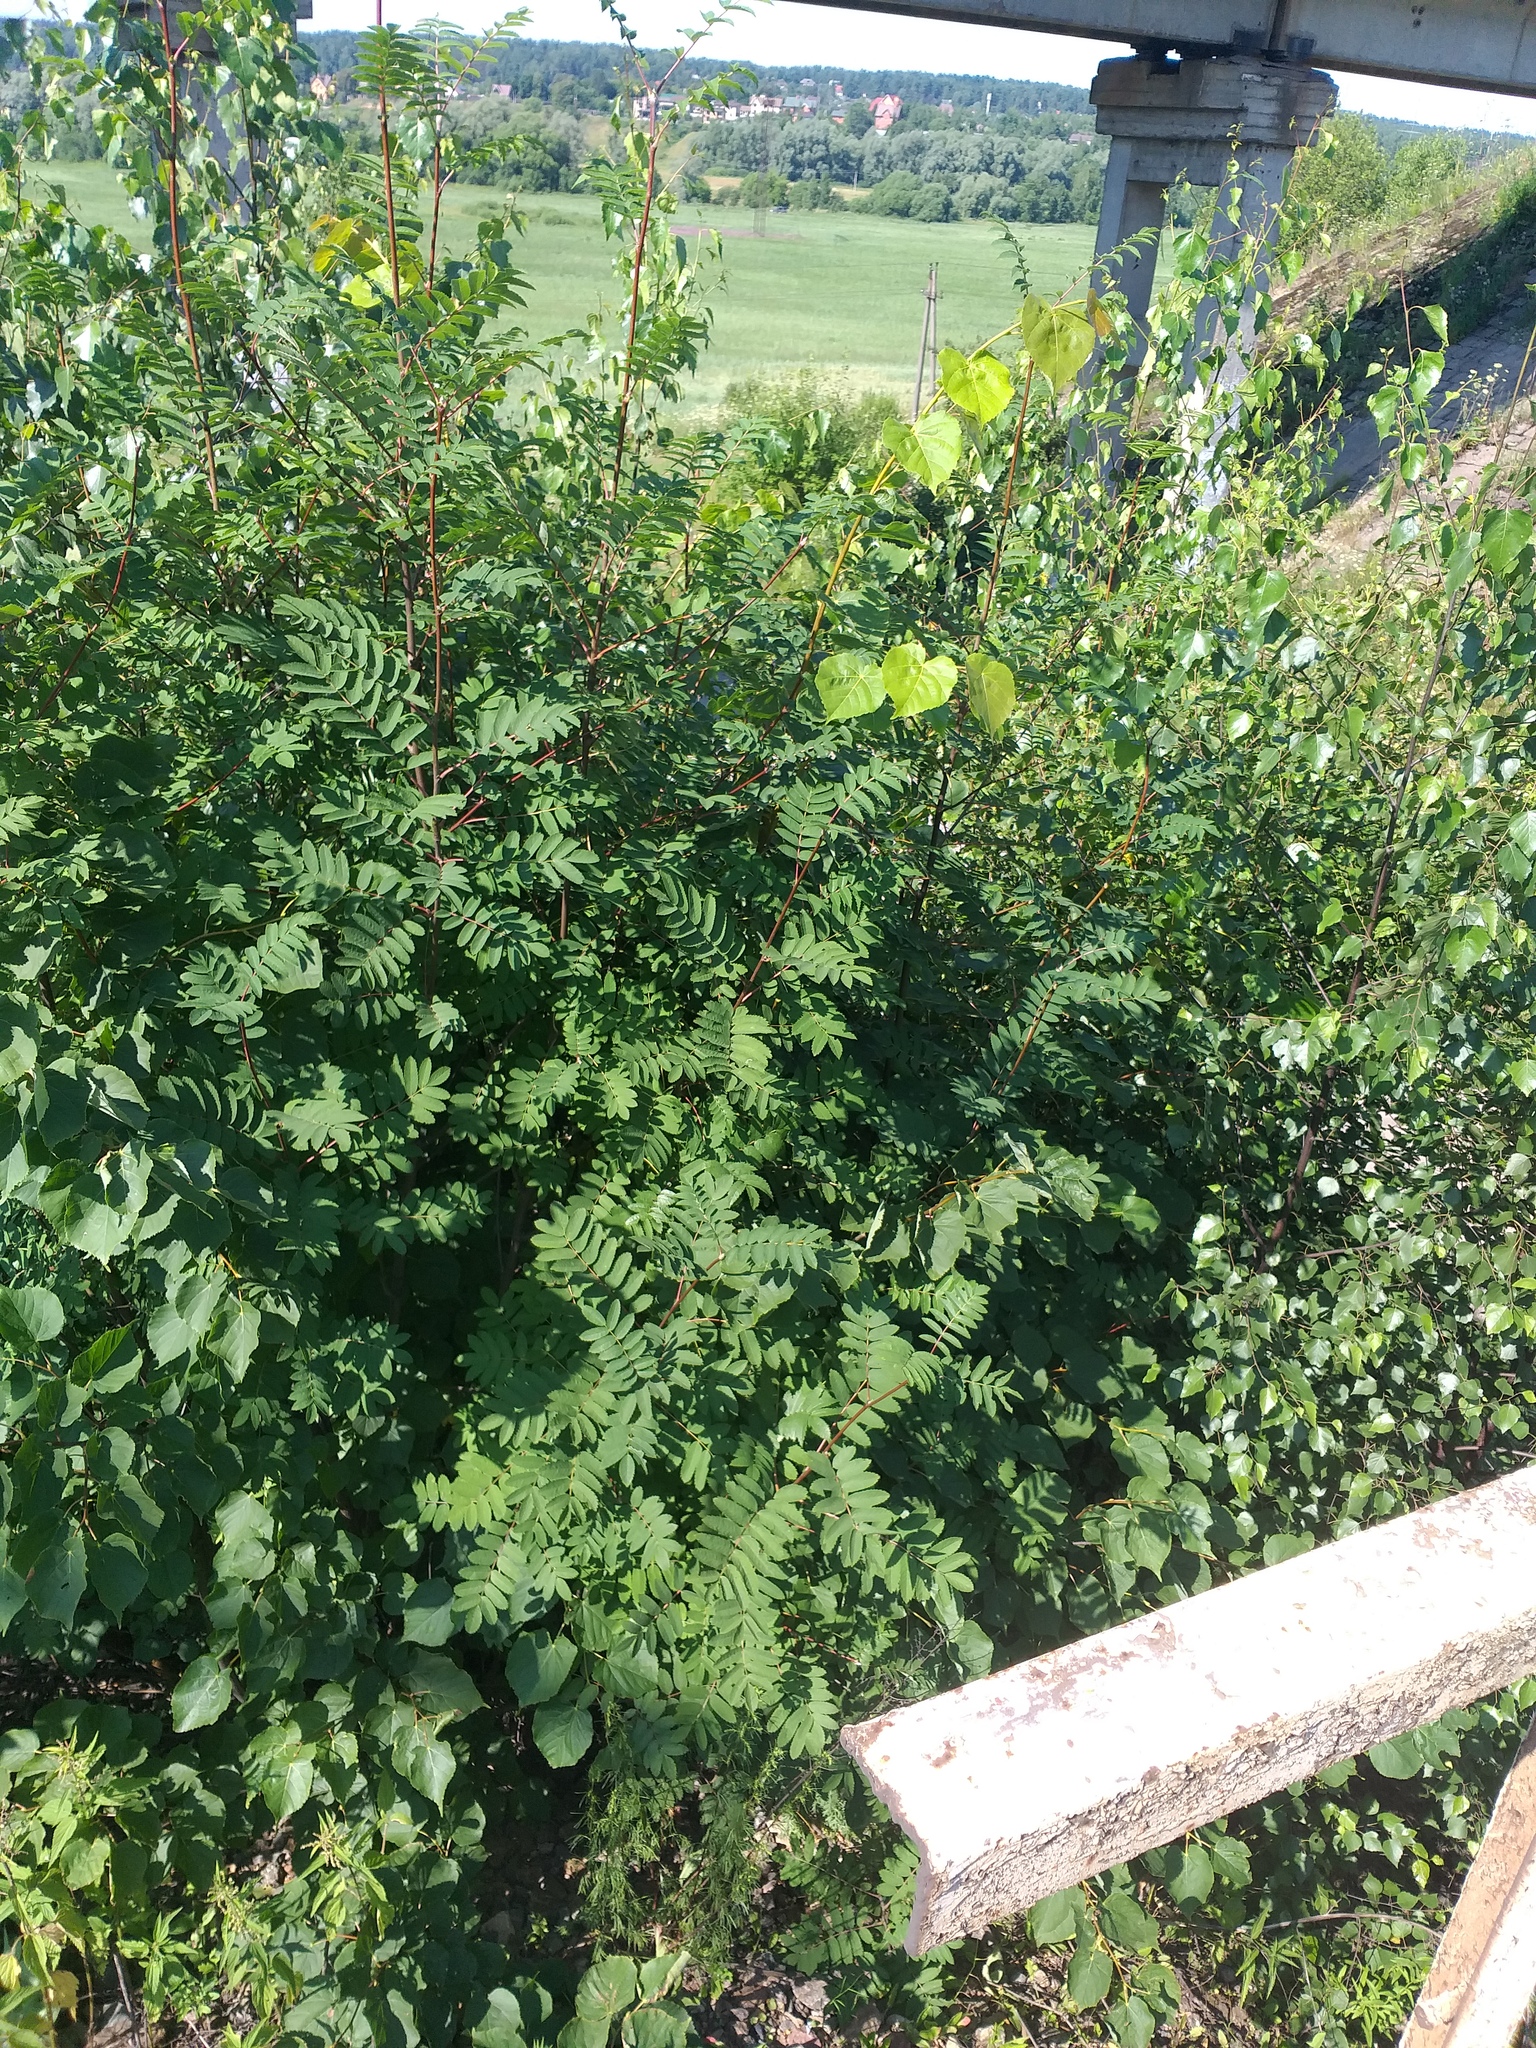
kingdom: Plantae
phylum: Tracheophyta
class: Magnoliopsida
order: Rosales
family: Rosaceae
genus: Sorbus
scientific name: Sorbus aucuparia
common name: Rowan
